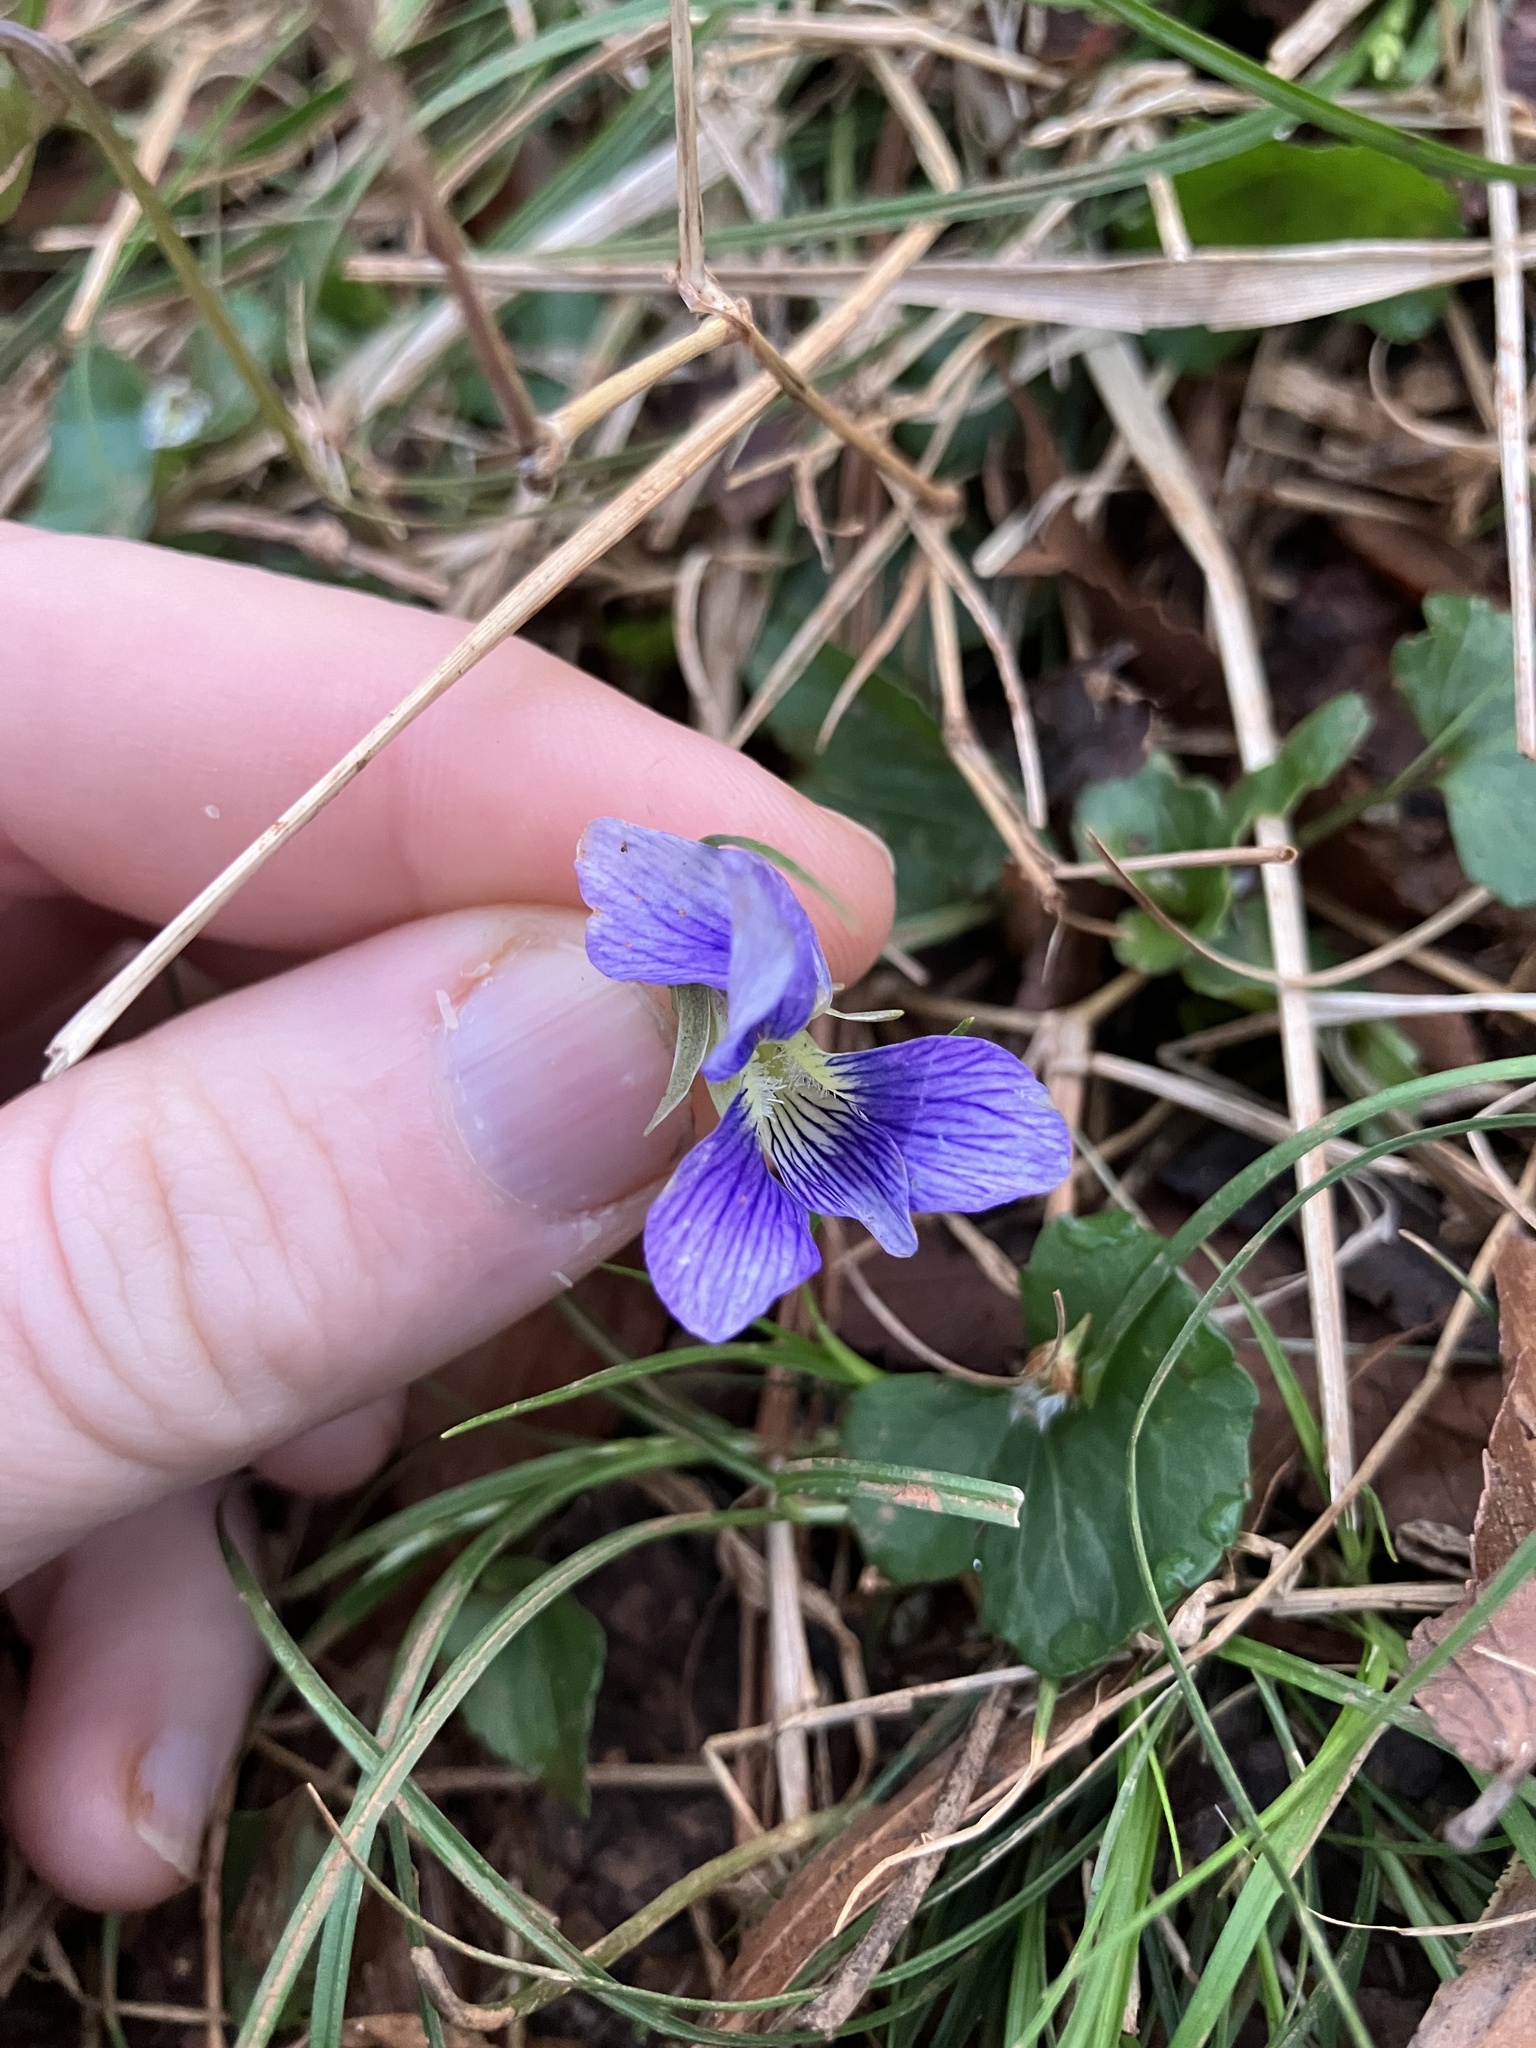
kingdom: Plantae
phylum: Tracheophyta
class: Magnoliopsida
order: Malpighiales
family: Violaceae
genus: Viola
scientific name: Viola cucullata
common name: Marsh blue violet
